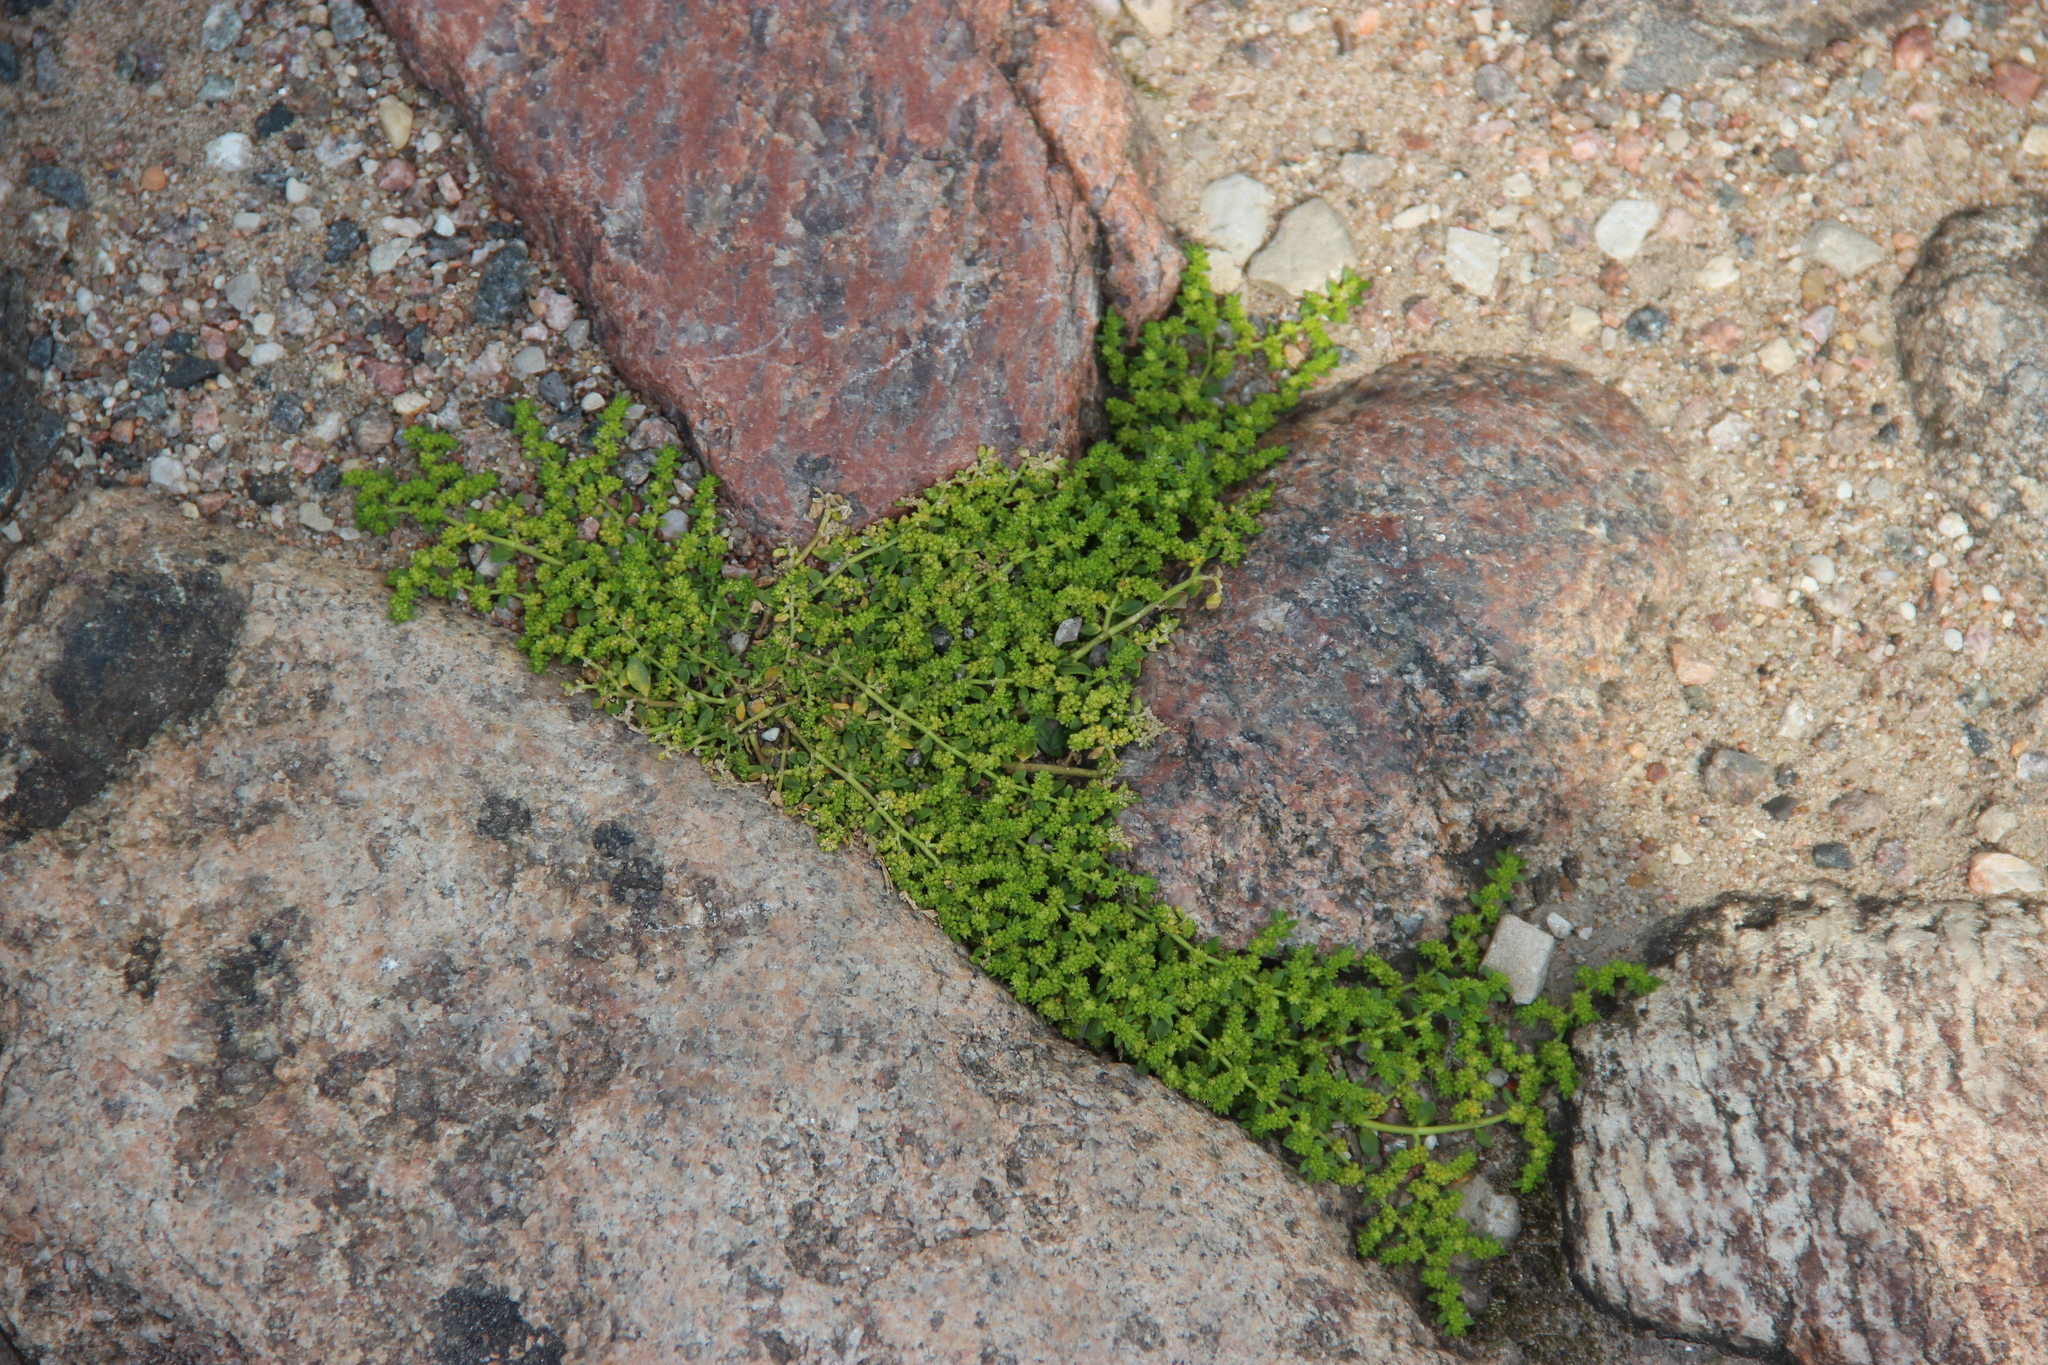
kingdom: Plantae
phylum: Tracheophyta
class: Magnoliopsida
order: Caryophyllales
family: Caryophyllaceae
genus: Herniaria
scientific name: Herniaria glabra
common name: Smooth rupturewort
